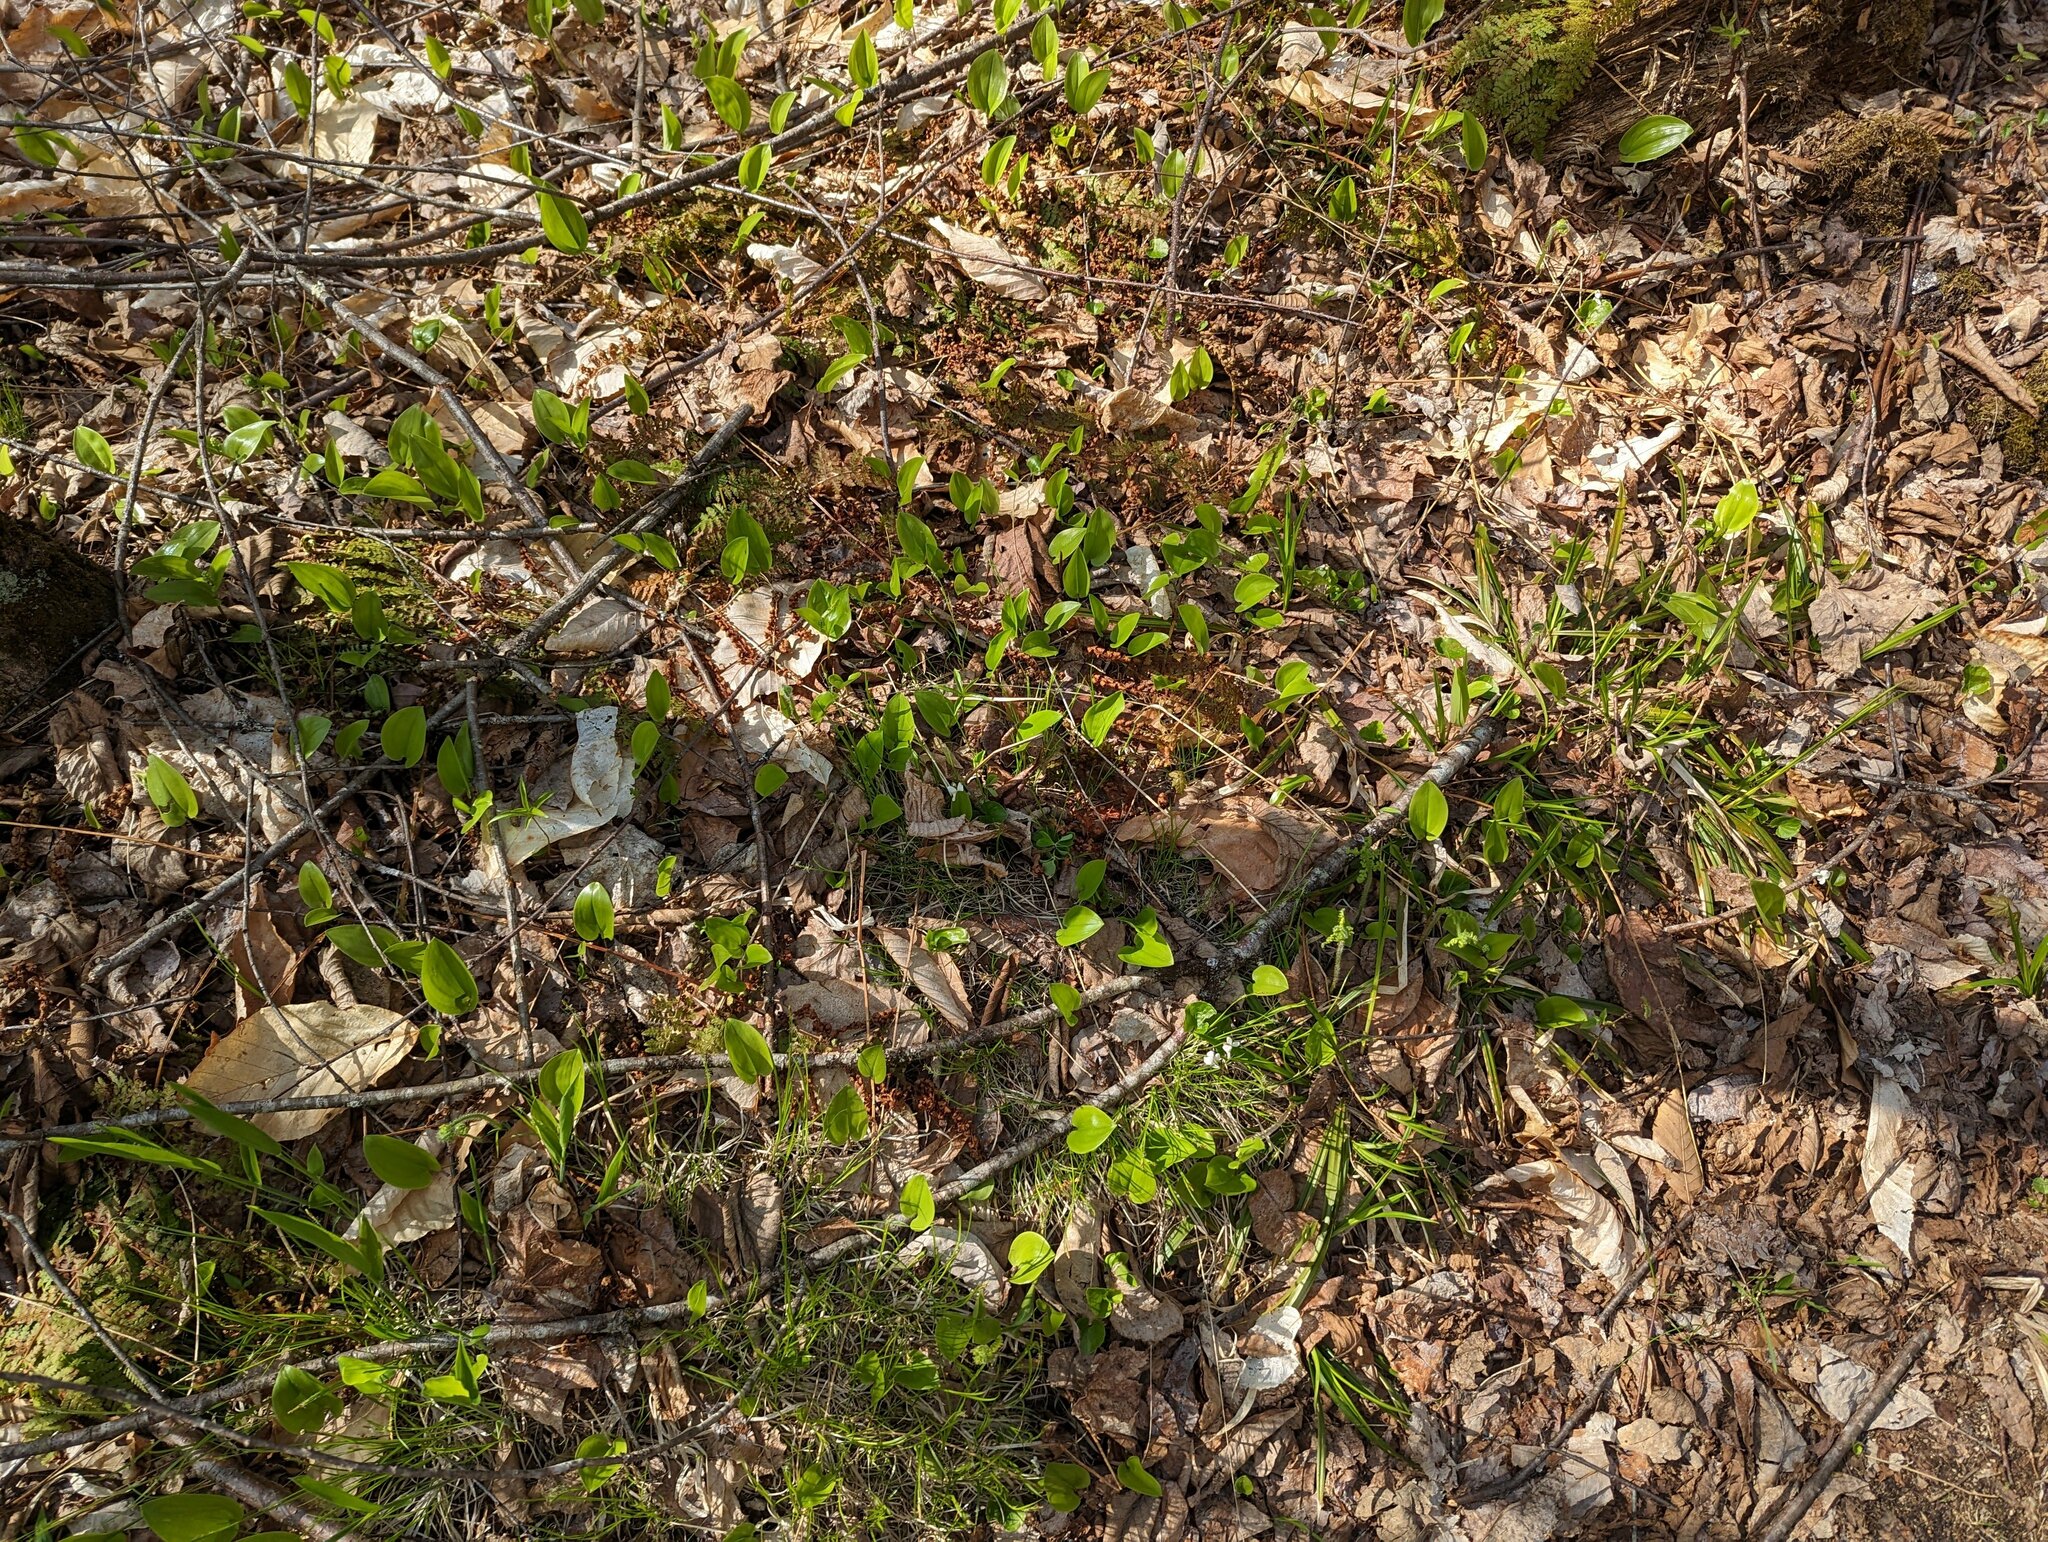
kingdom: Plantae
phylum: Tracheophyta
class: Liliopsida
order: Asparagales
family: Asparagaceae
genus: Maianthemum
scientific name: Maianthemum canadense
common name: False lily-of-the-valley
